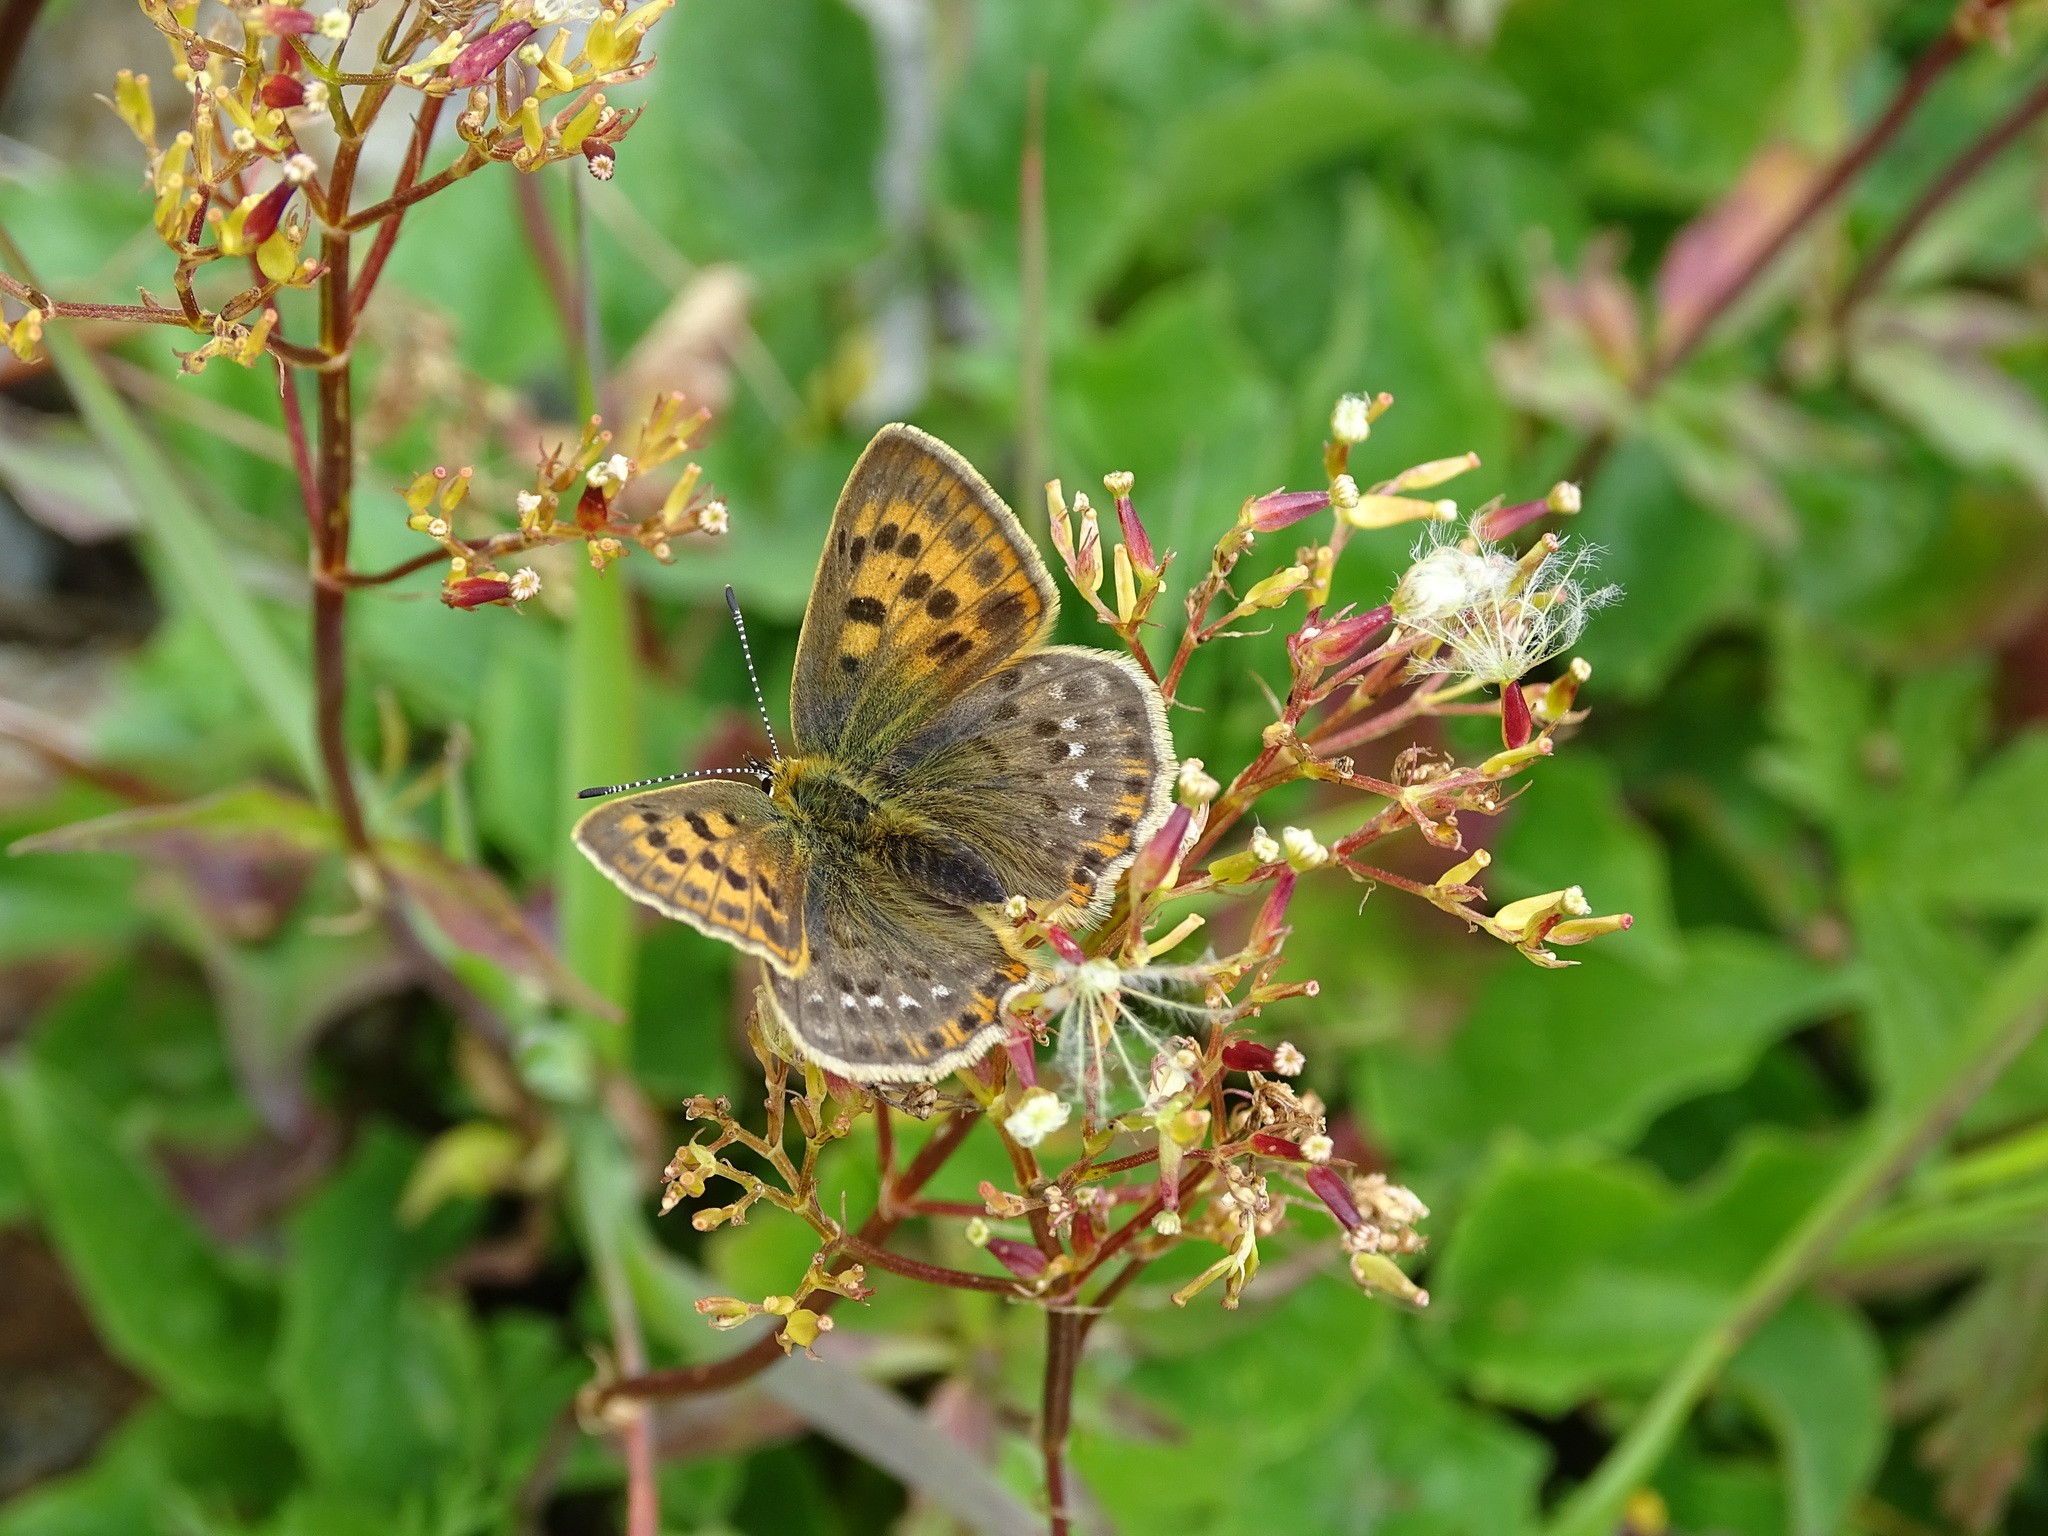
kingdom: Animalia
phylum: Arthropoda
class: Insecta
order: Lepidoptera
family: Lycaenidae
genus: Lycaena
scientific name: Lycaena virgaureae
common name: Scarce copper
